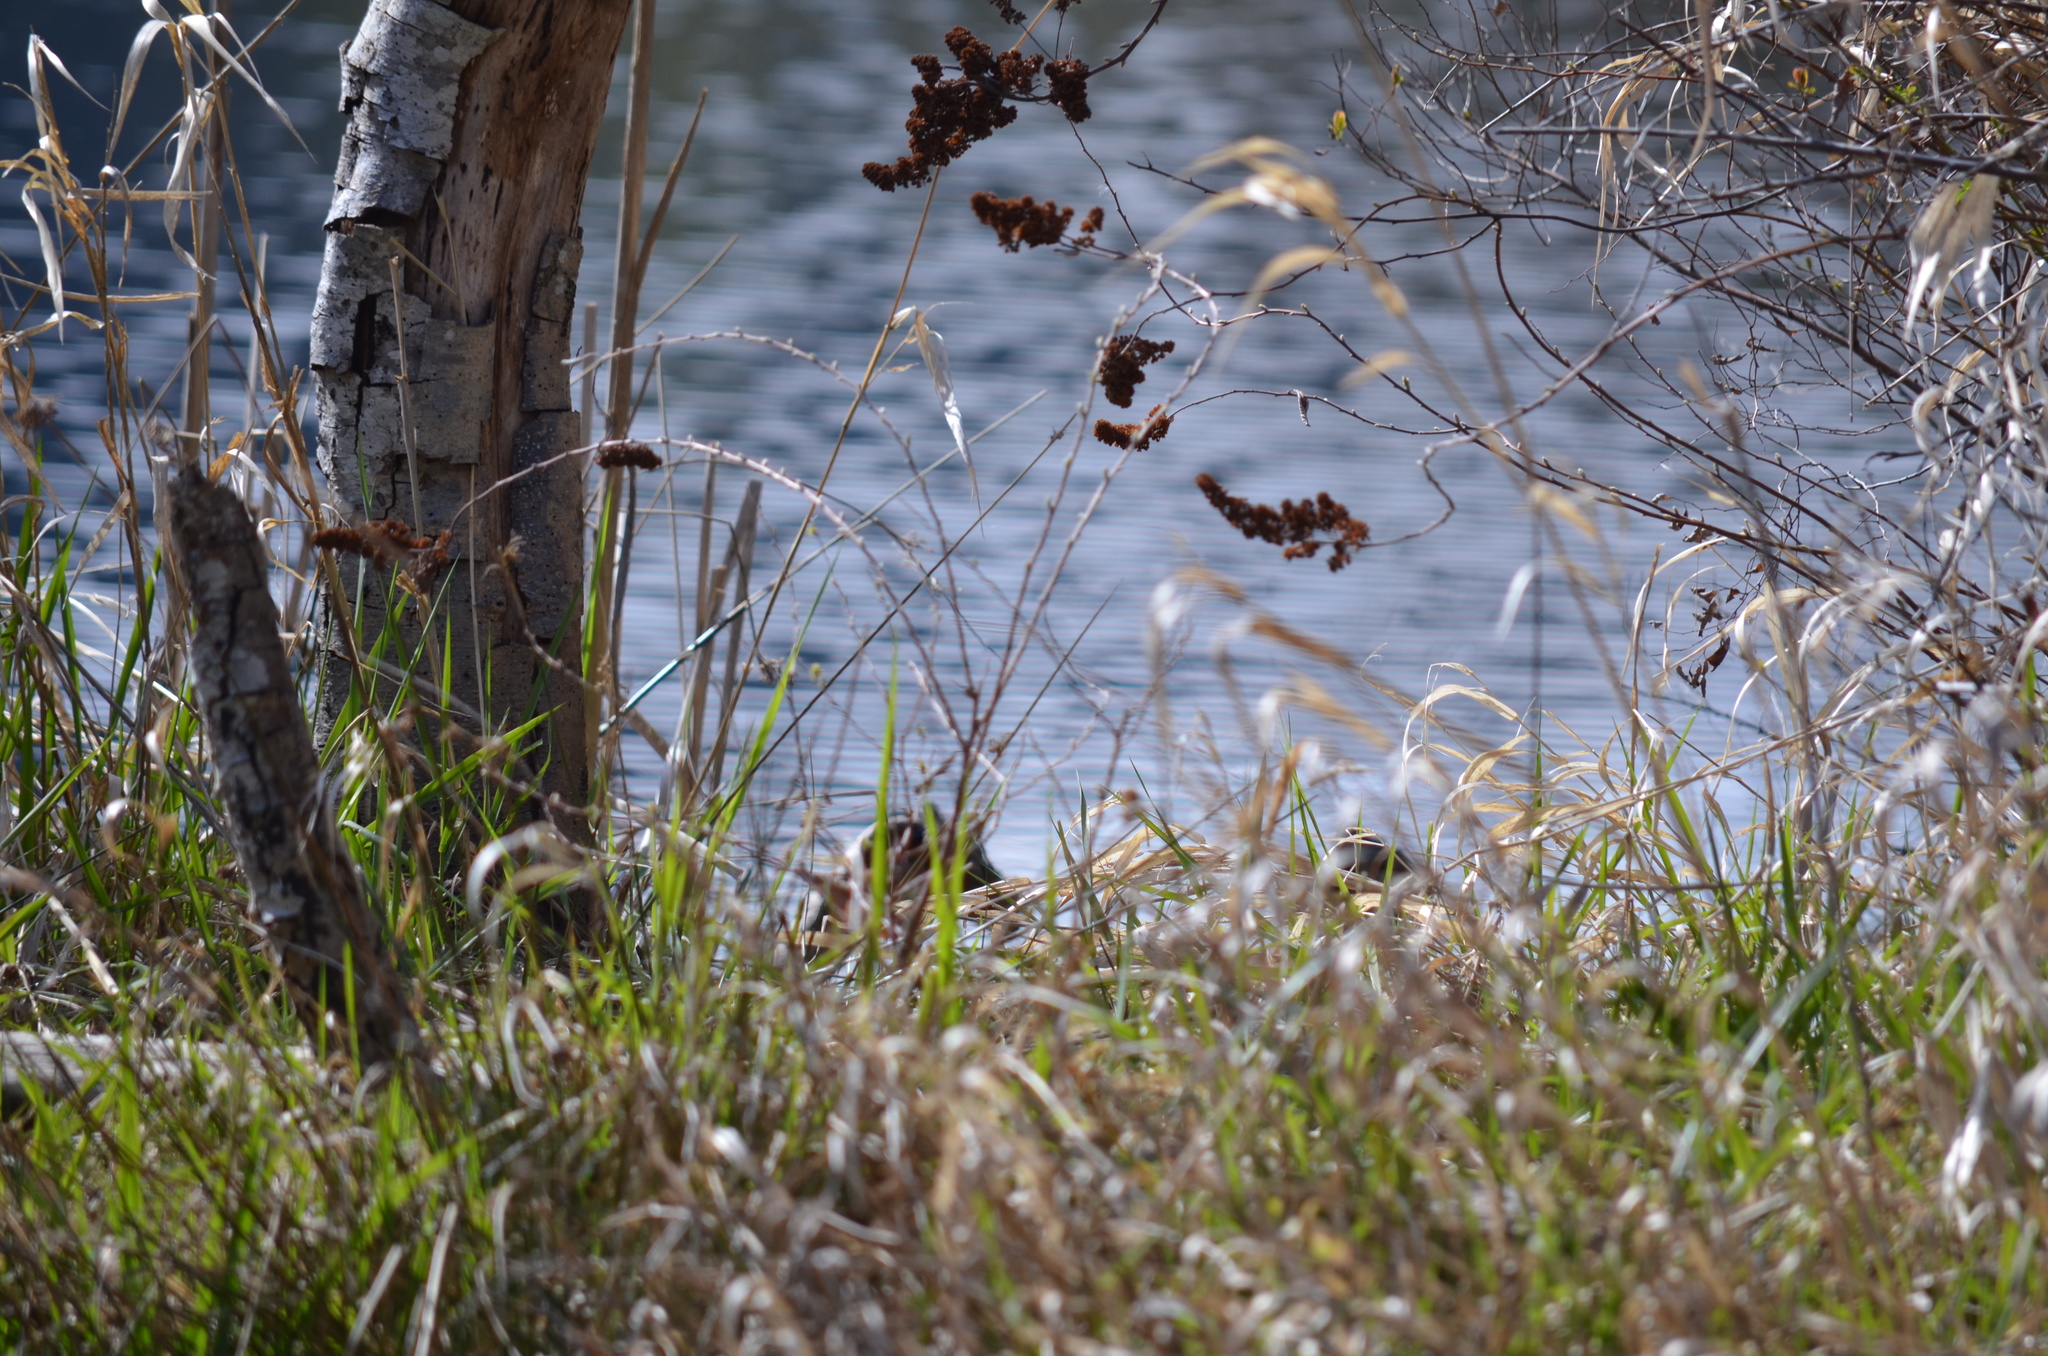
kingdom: Animalia
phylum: Chordata
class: Testudines
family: Emydidae
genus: Chrysemys
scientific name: Chrysemys picta
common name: Painted turtle
